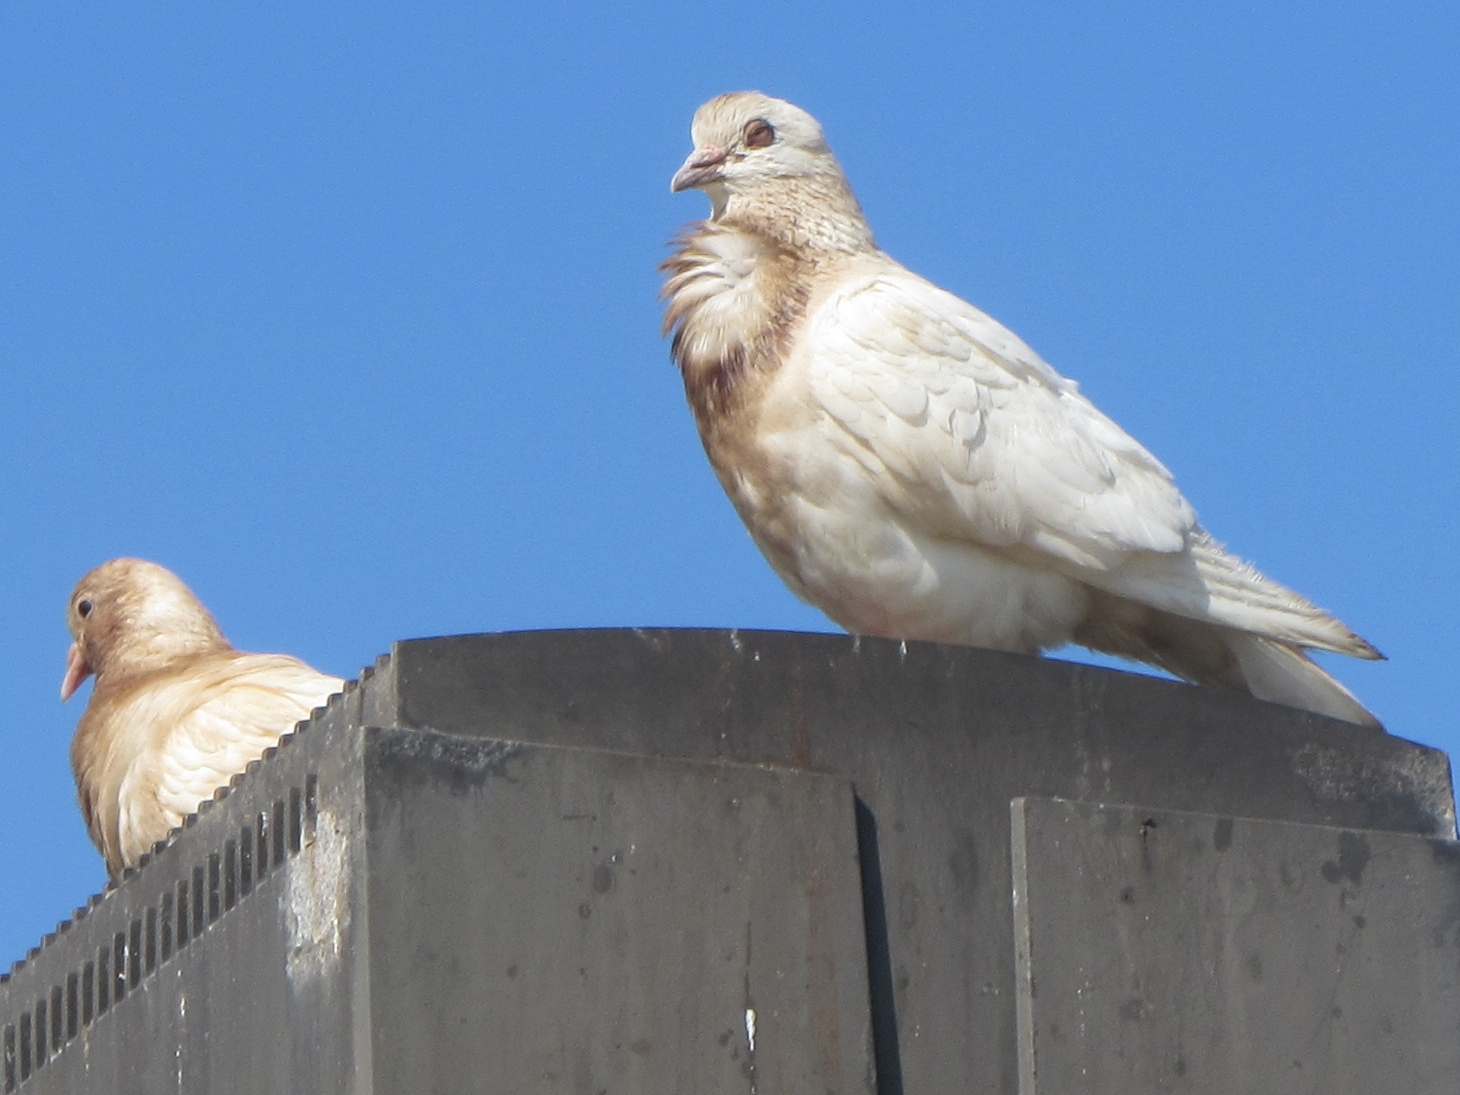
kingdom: Animalia
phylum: Chordata
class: Aves
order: Columbiformes
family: Columbidae
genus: Columba
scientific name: Columba livia
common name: Rock pigeon
